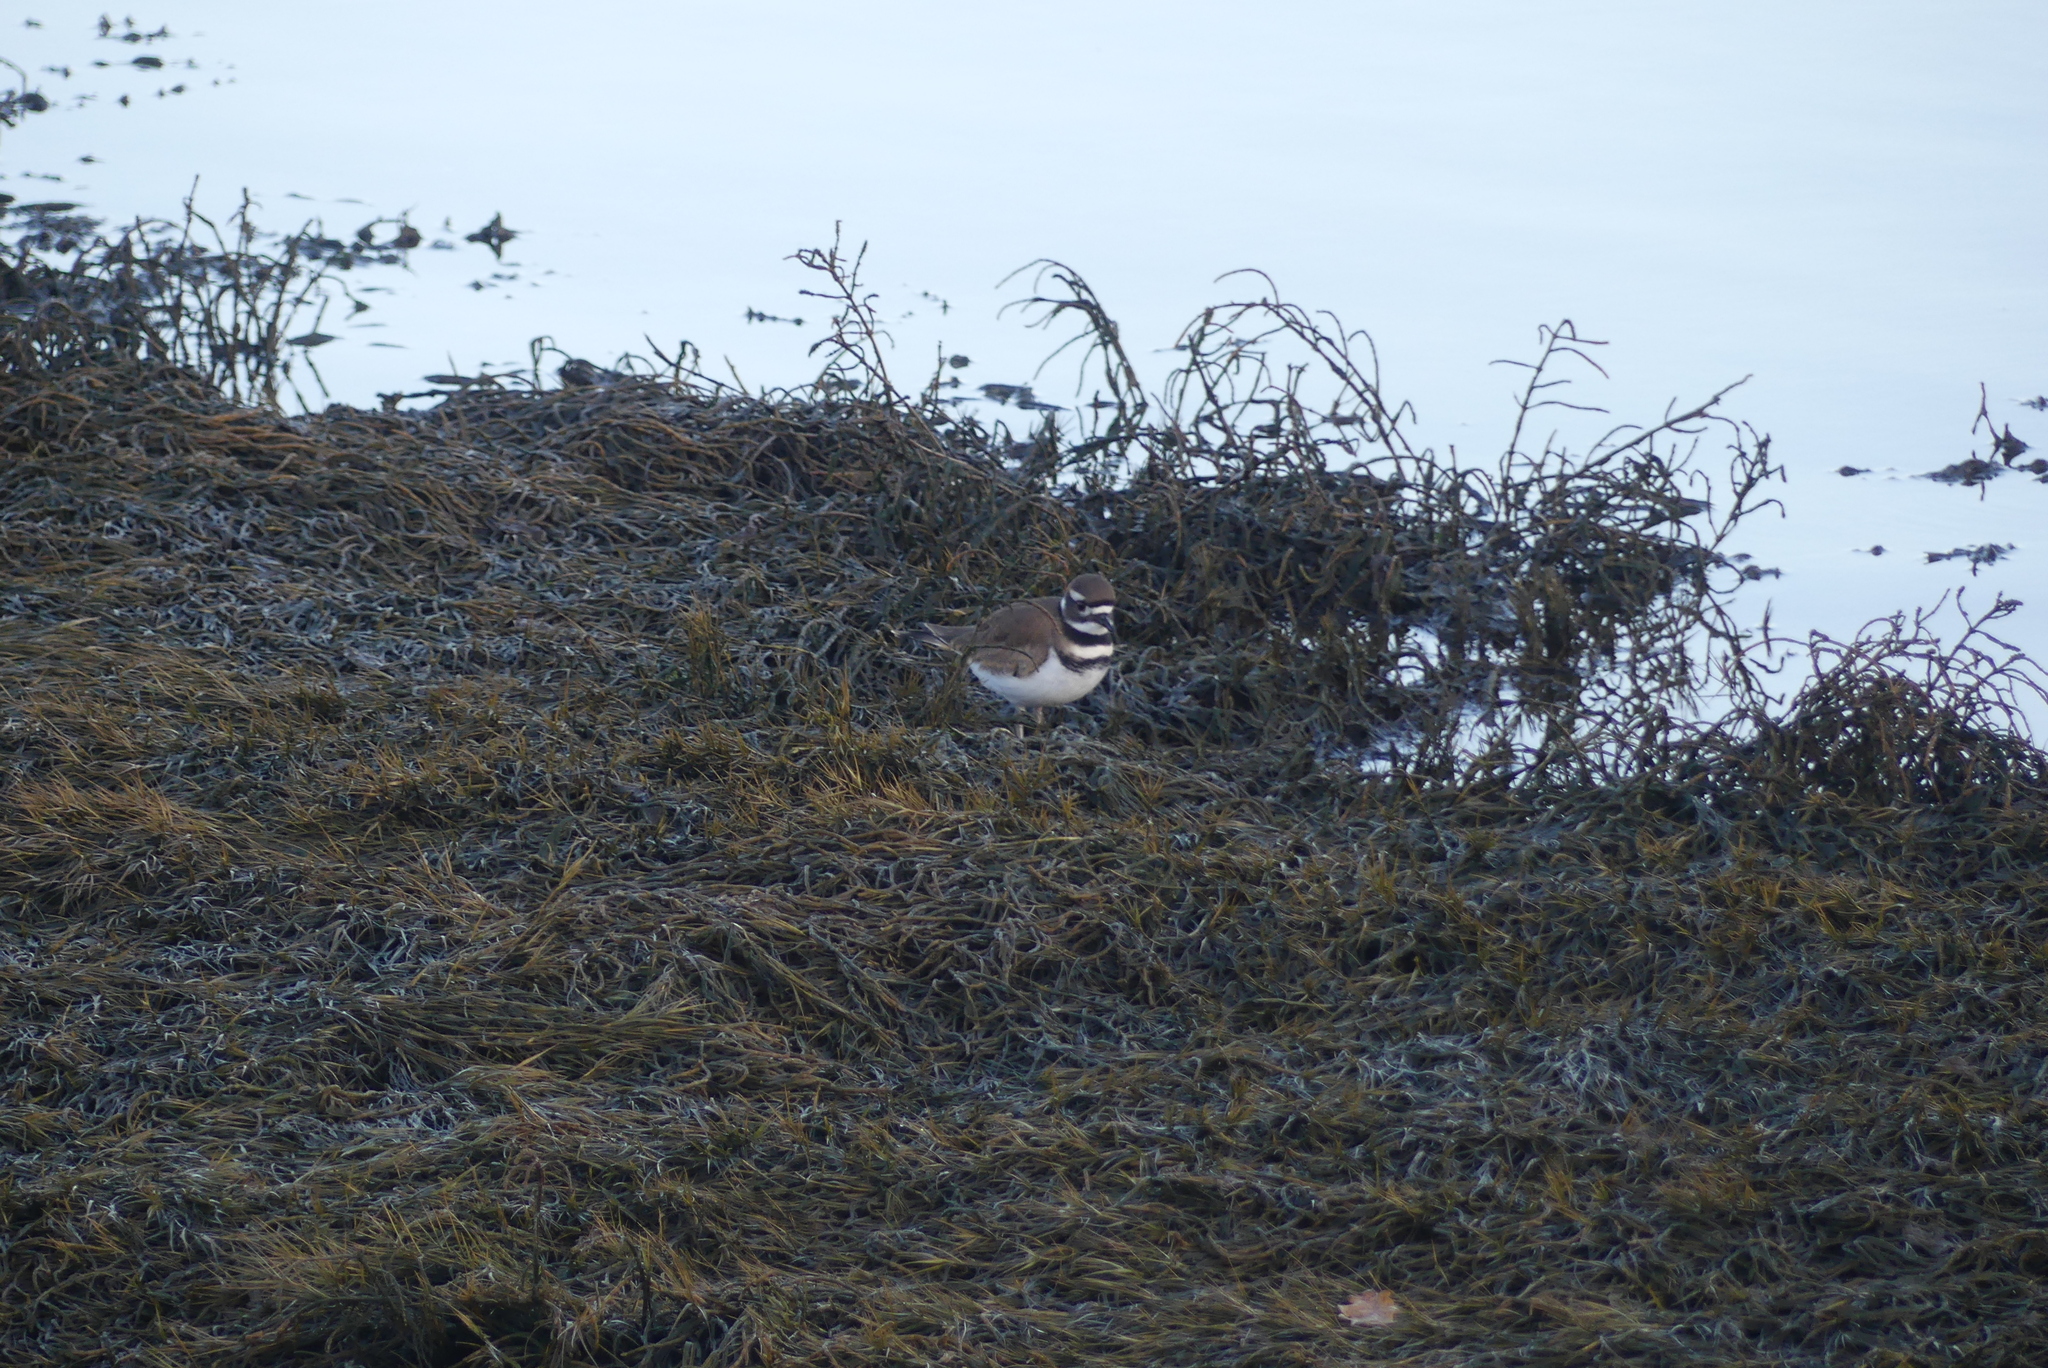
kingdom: Animalia
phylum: Chordata
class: Aves
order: Charadriiformes
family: Charadriidae
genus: Charadrius
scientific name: Charadrius vociferus
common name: Killdeer
